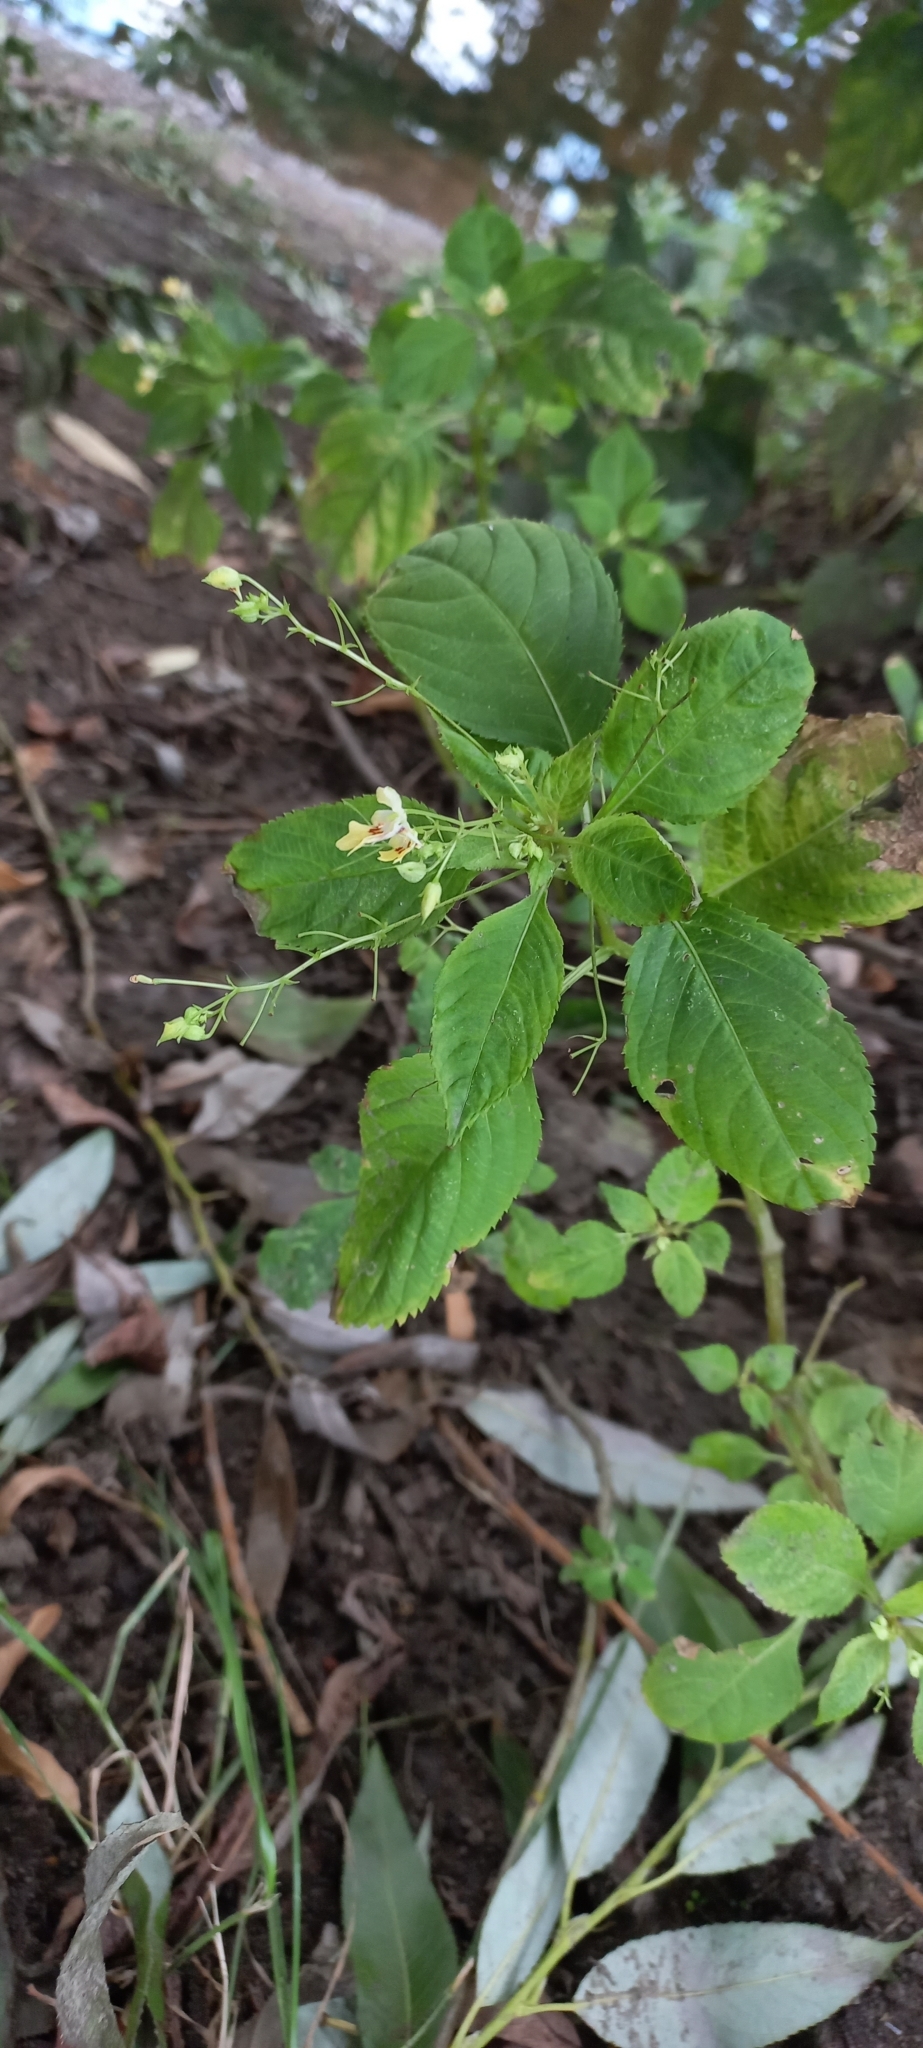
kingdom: Plantae
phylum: Tracheophyta
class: Magnoliopsida
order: Lamiales
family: Lamiaceae
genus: Lamium
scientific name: Lamium album
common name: White dead-nettle
